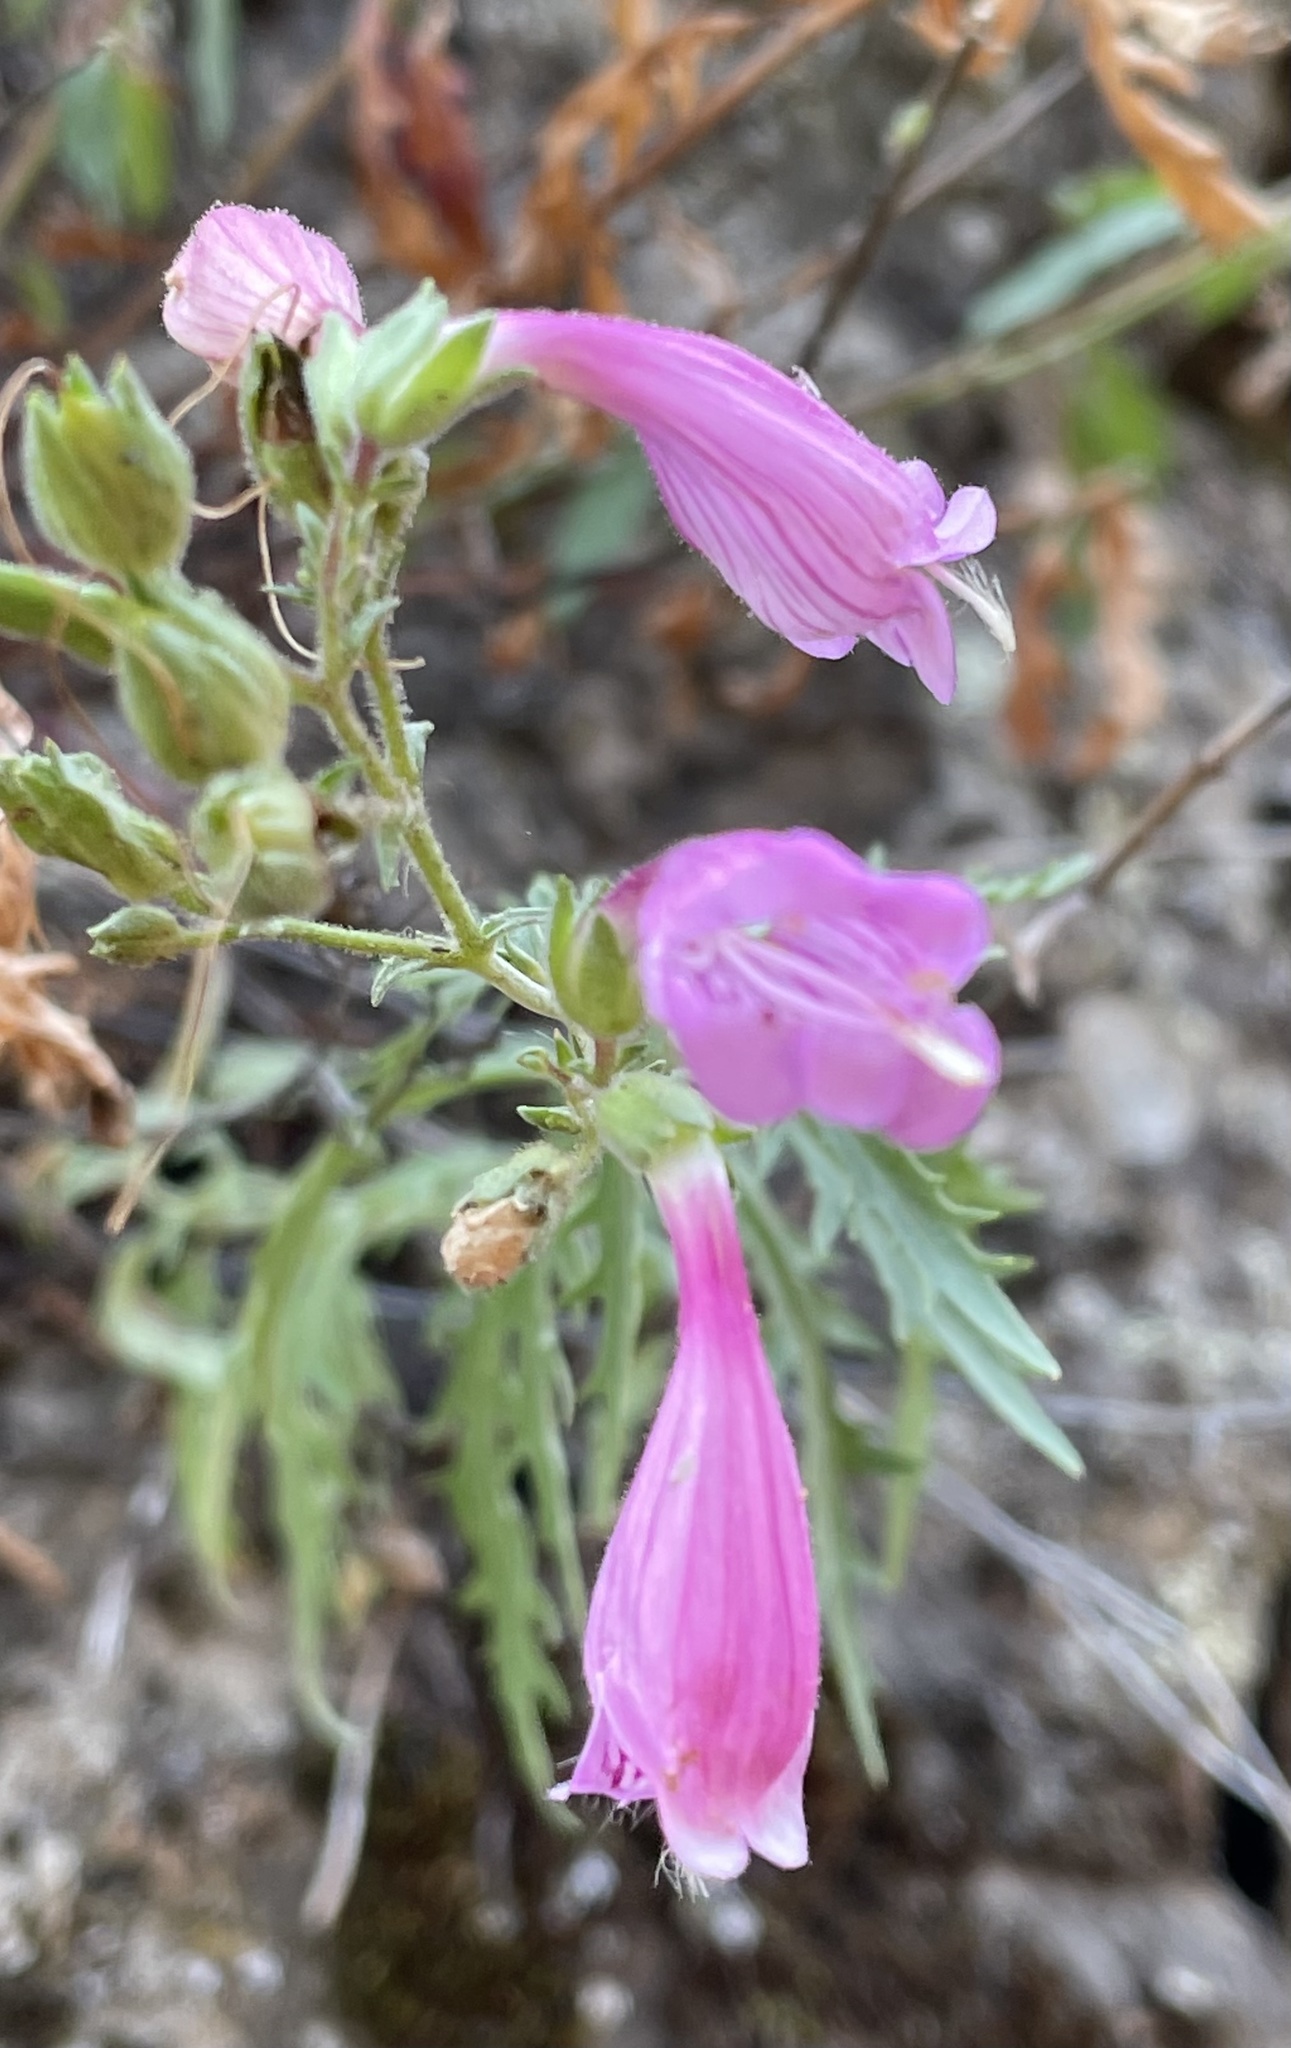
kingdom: Plantae
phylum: Tracheophyta
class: Magnoliopsida
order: Lamiales
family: Plantaginaceae
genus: Penstemon
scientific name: Penstemon richardsonii
